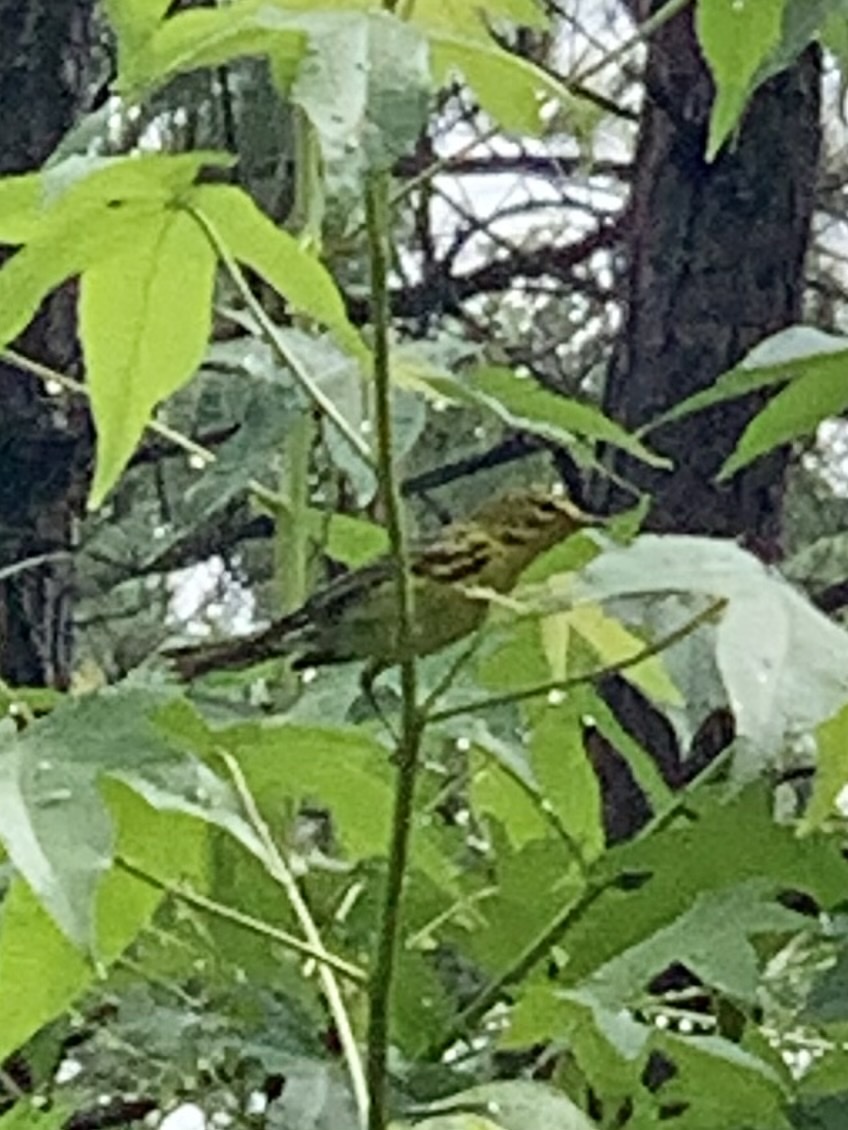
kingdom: Animalia
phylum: Chordata
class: Aves
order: Passeriformes
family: Parulidae
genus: Setophaga
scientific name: Setophaga discolor
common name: Prairie warbler
